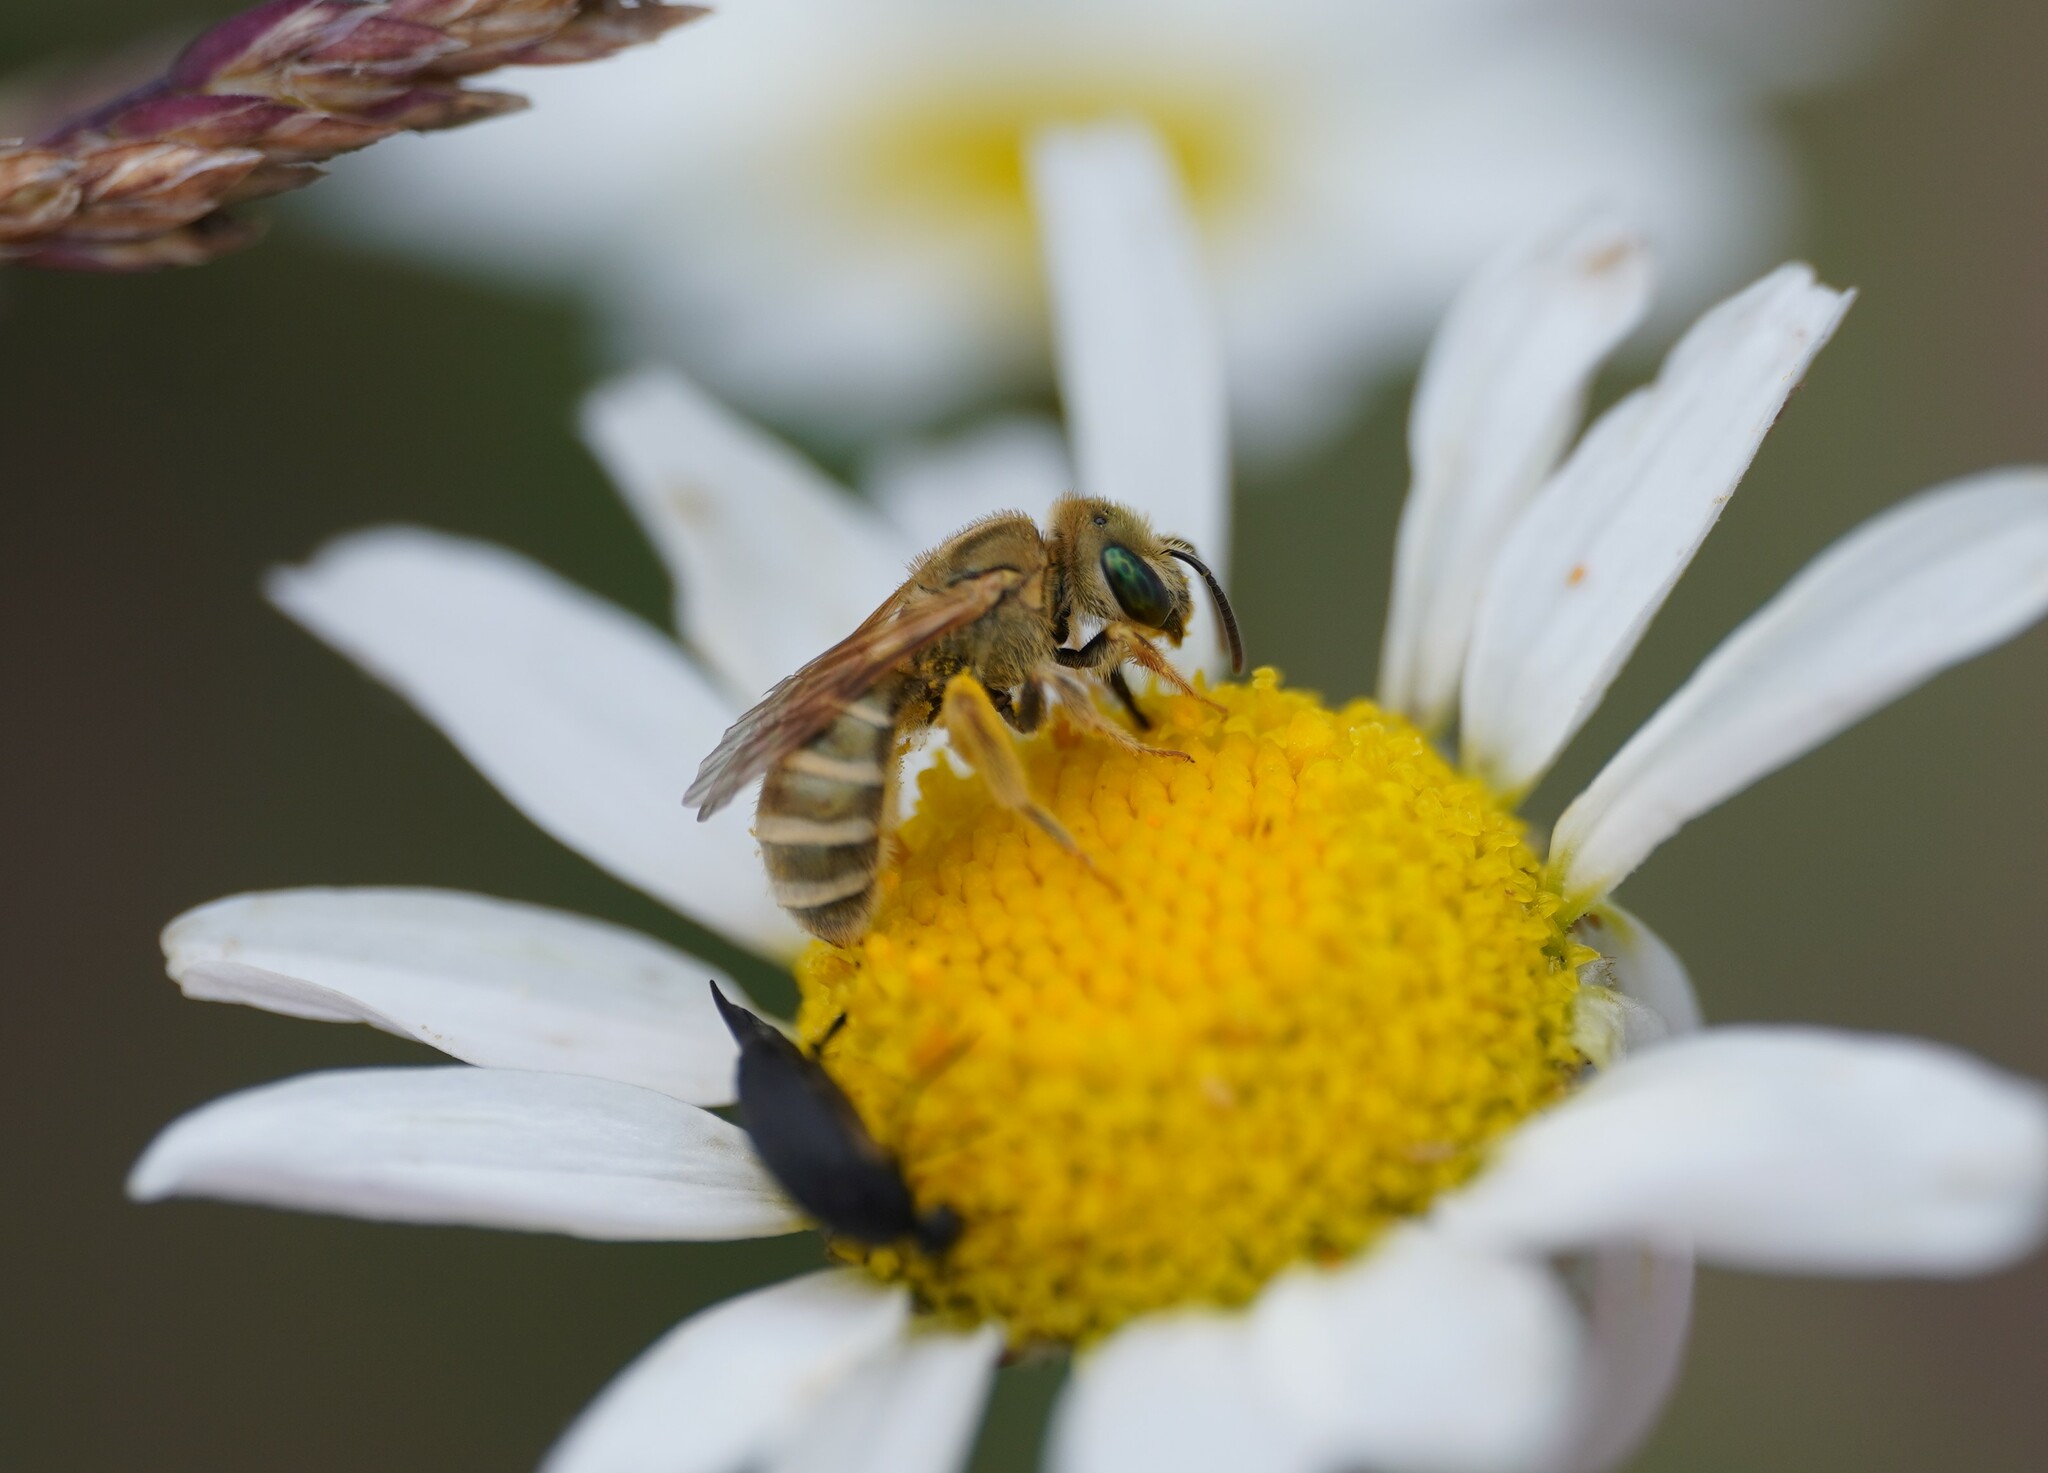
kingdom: Animalia
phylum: Arthropoda
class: Insecta
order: Hymenoptera
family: Halictidae
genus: Halictus
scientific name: Halictus subauratus
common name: Golden furrow bee
